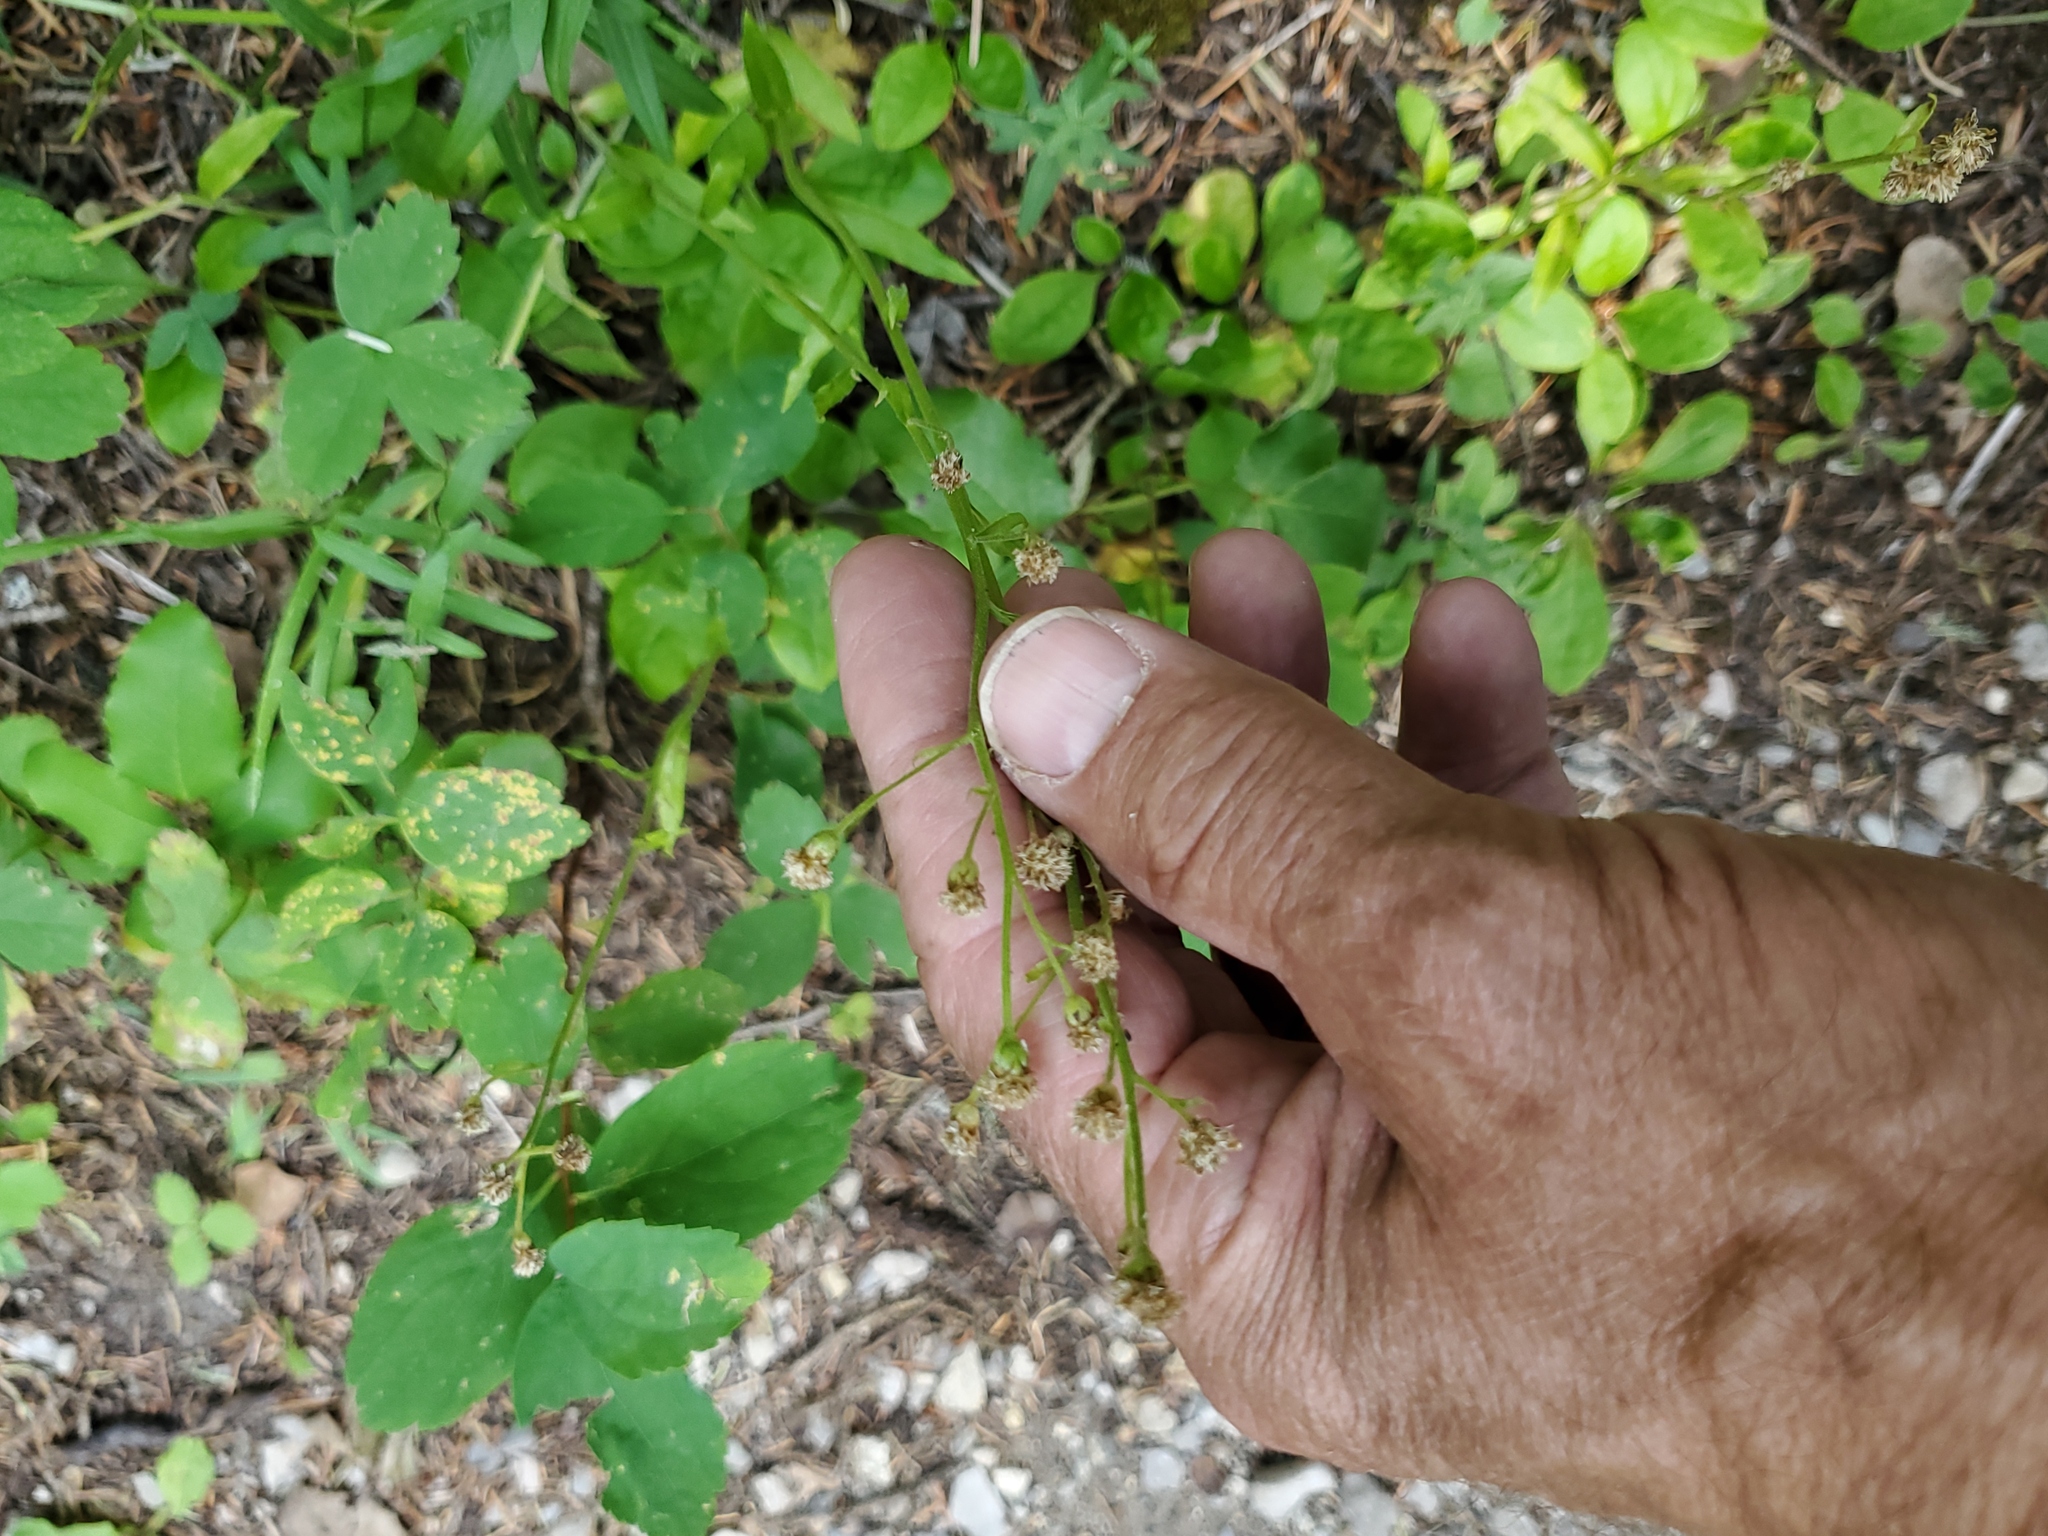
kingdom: Plantae
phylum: Tracheophyta
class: Magnoliopsida
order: Asterales
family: Asteraceae
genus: Antennaria
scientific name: Antennaria racemosa
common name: Racemose pussytoes
